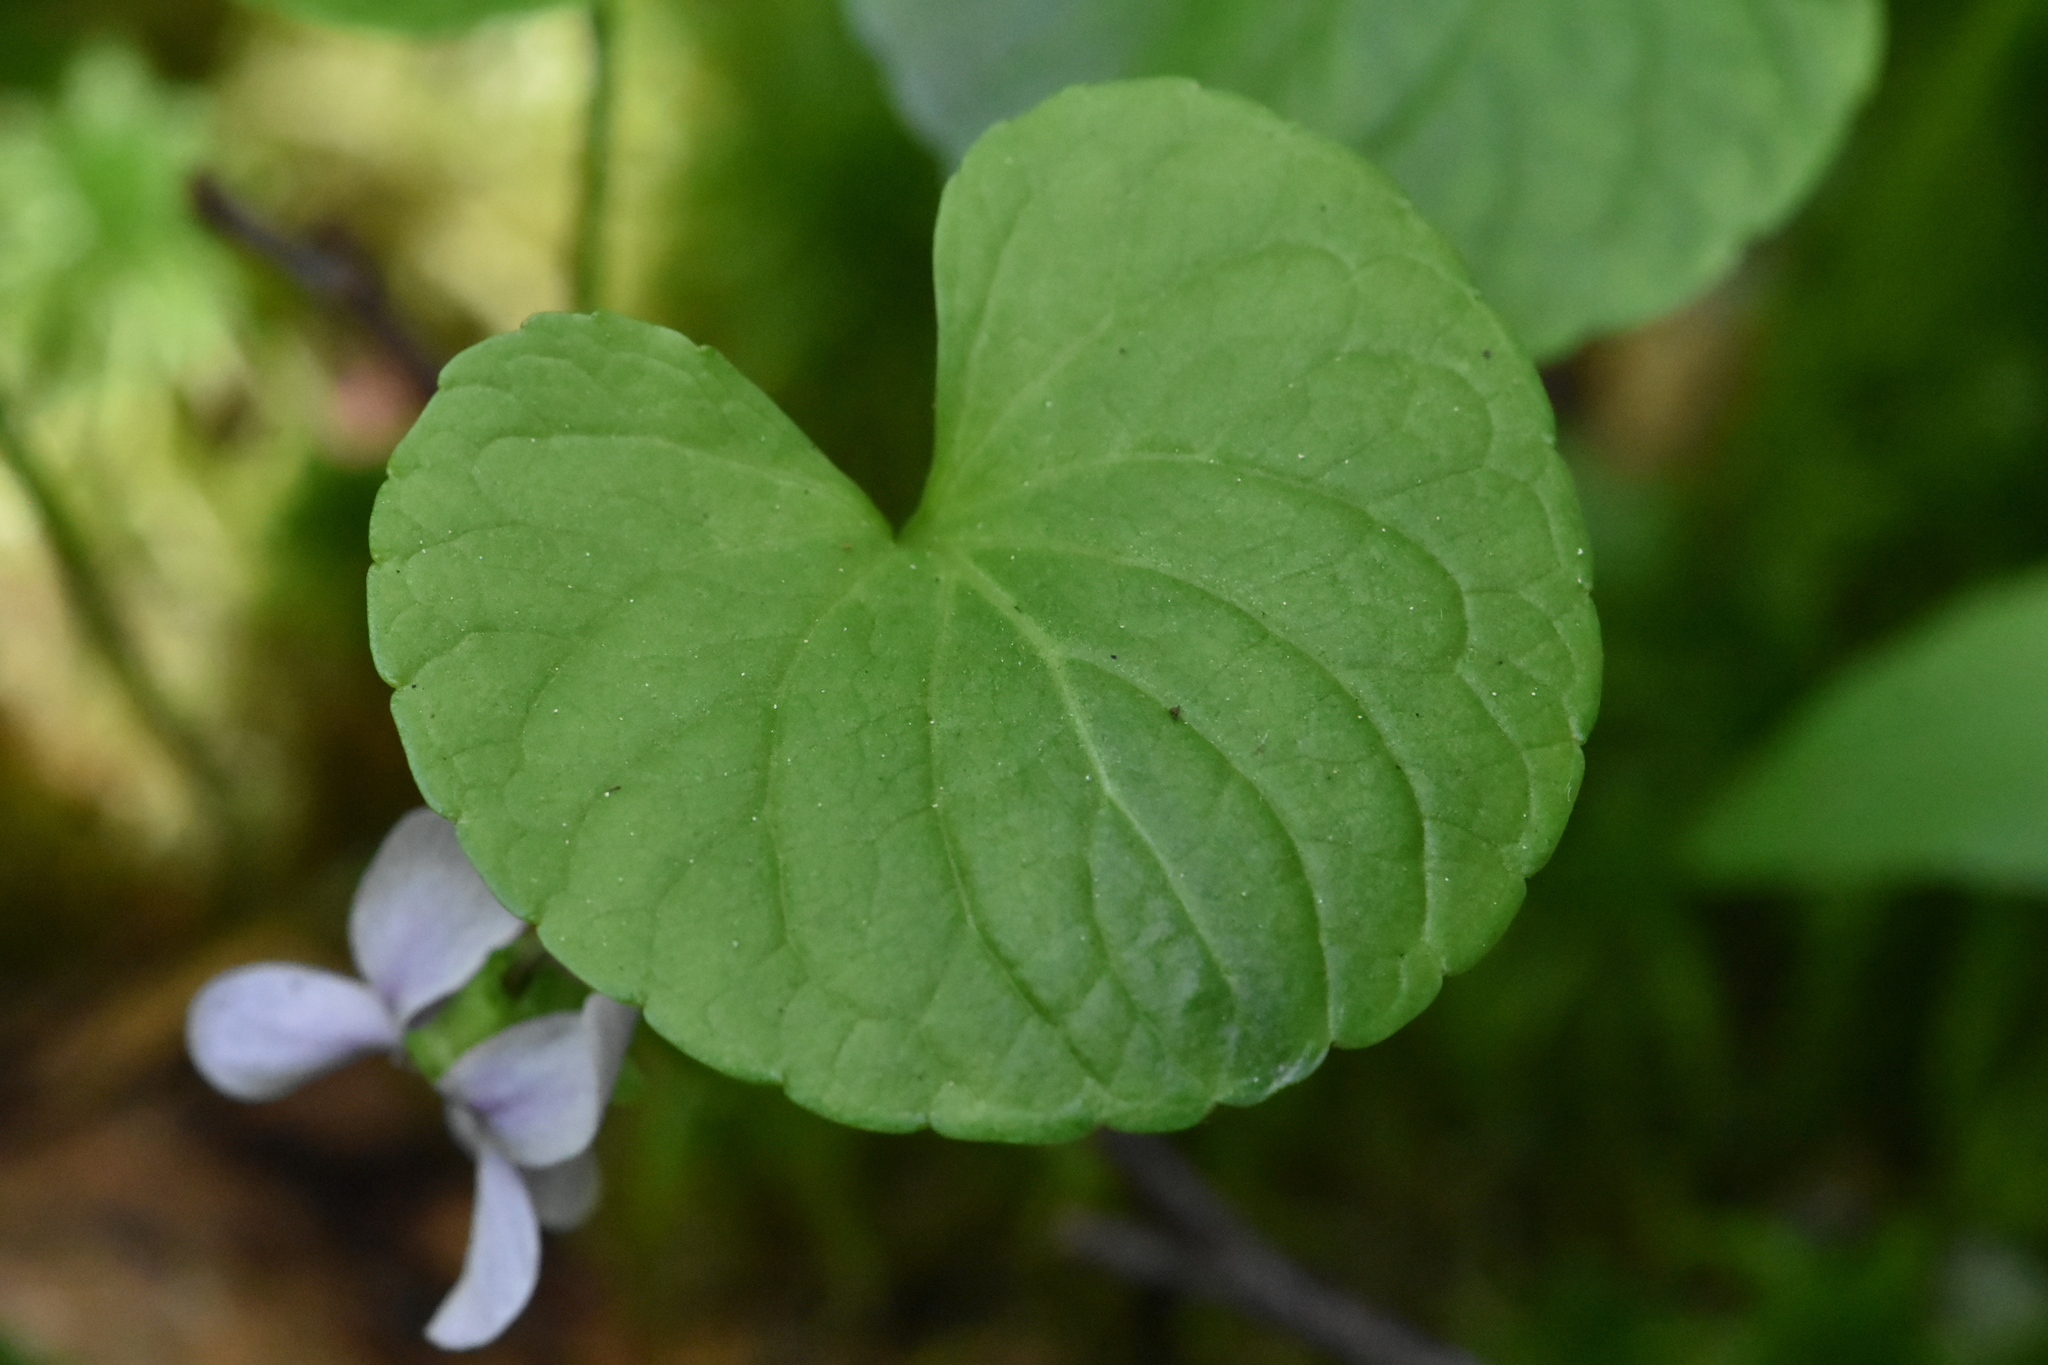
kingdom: Plantae
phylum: Tracheophyta
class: Magnoliopsida
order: Malpighiales
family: Violaceae
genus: Viola
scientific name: Viola palustris
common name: Marsh violet
